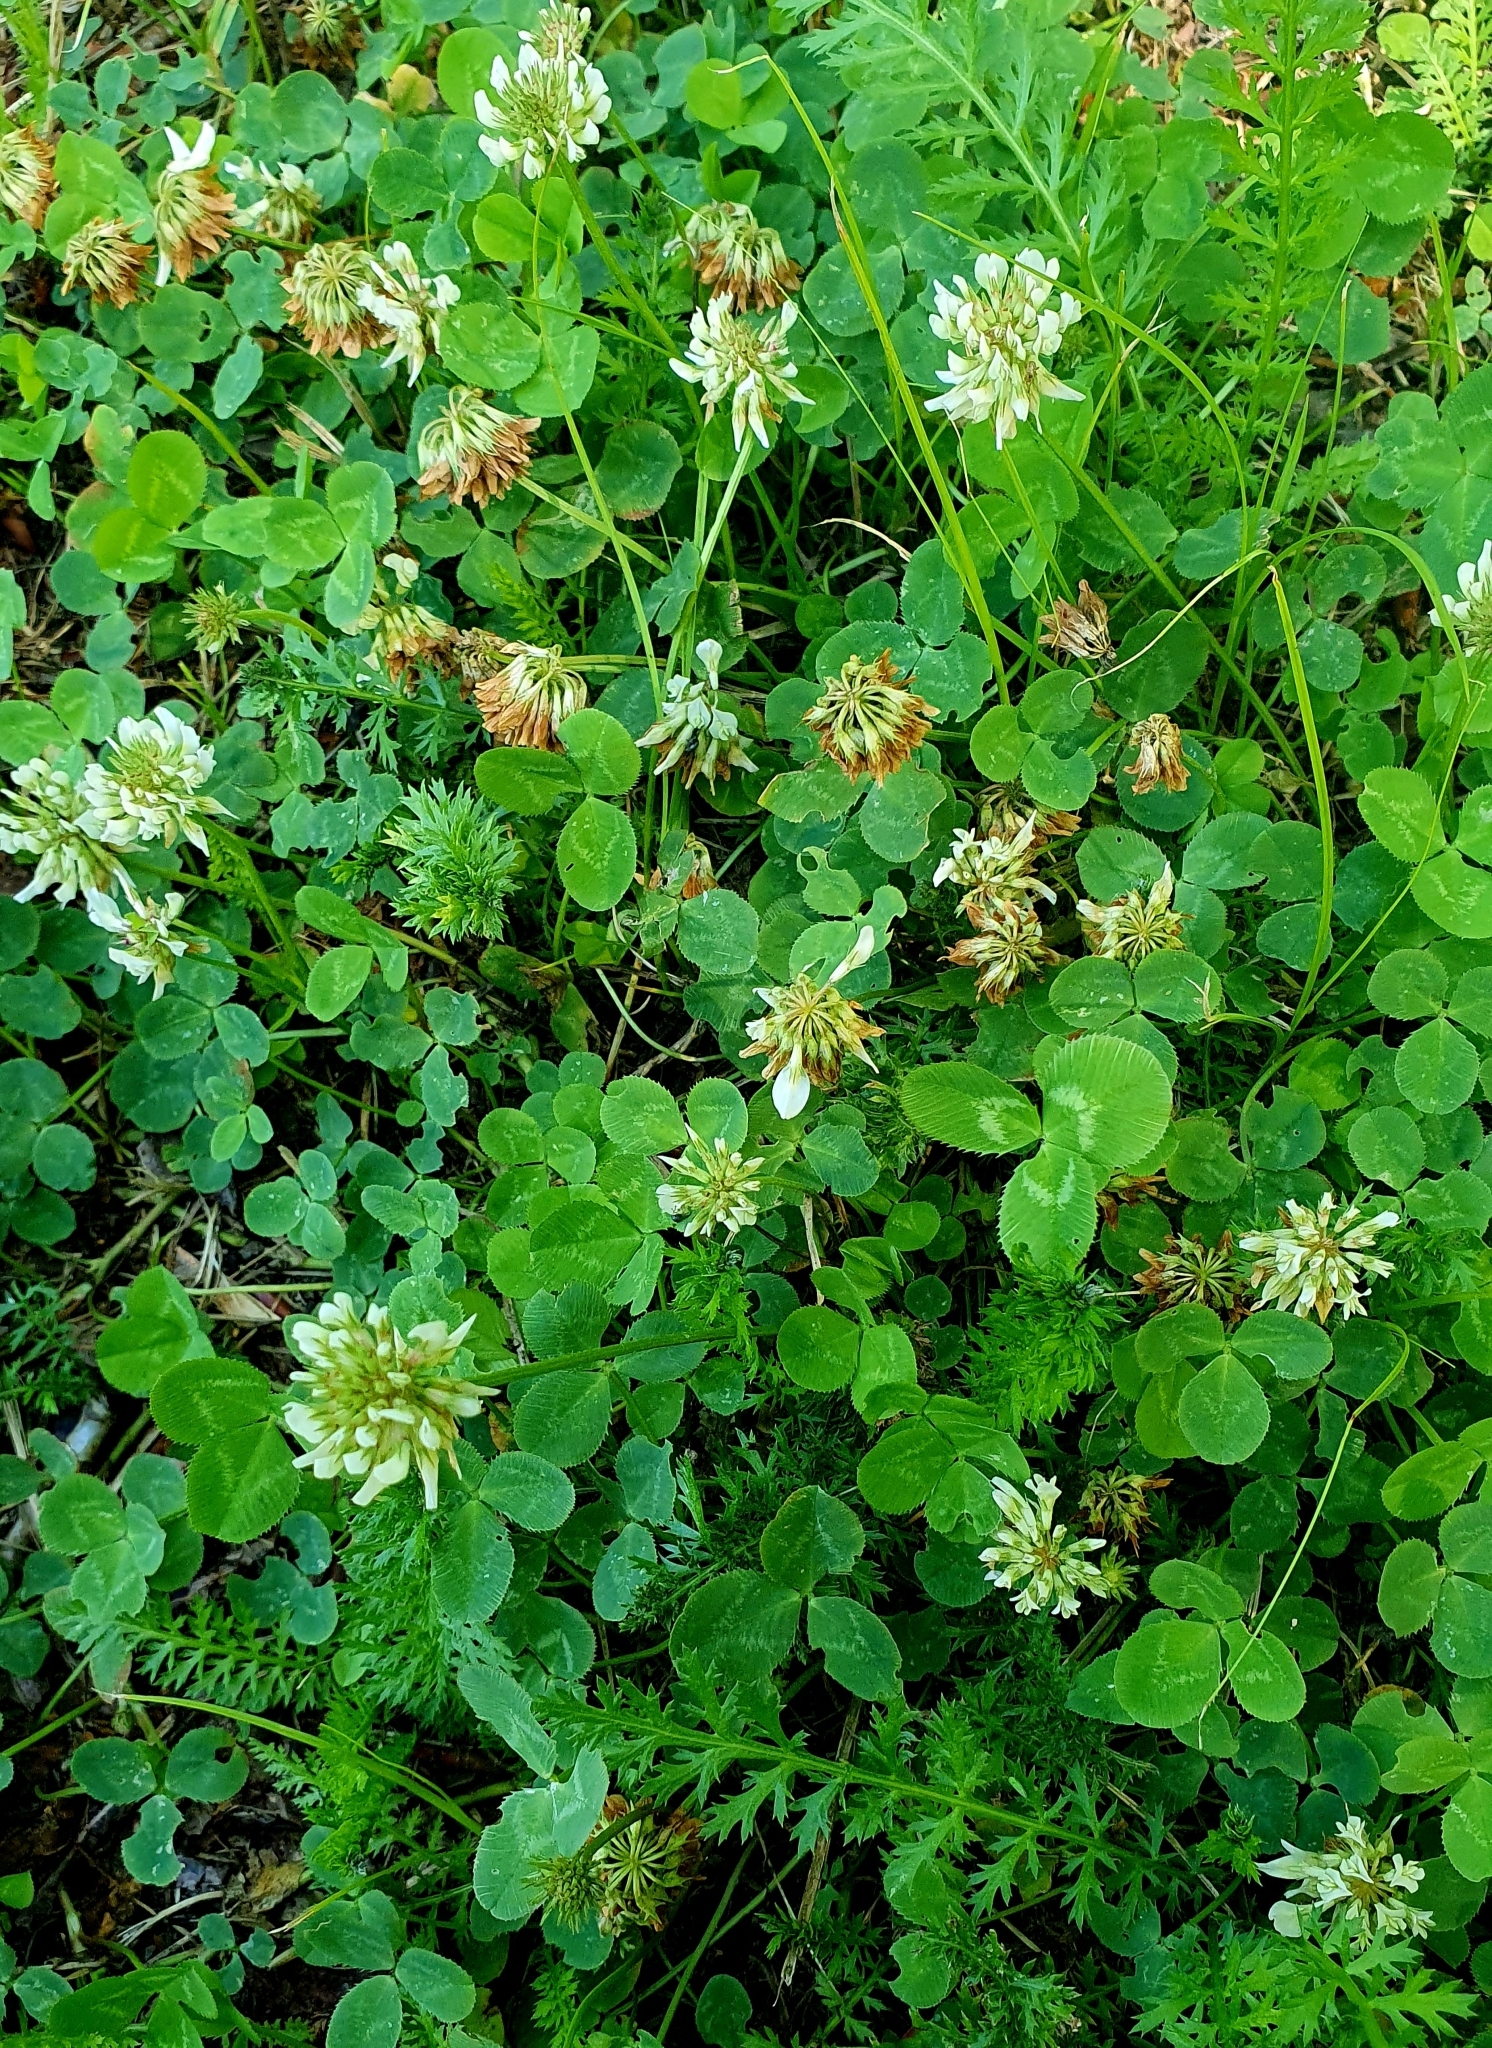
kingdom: Plantae
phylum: Tracheophyta
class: Magnoliopsida
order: Fabales
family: Fabaceae
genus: Trifolium
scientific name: Trifolium repens
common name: White clover
